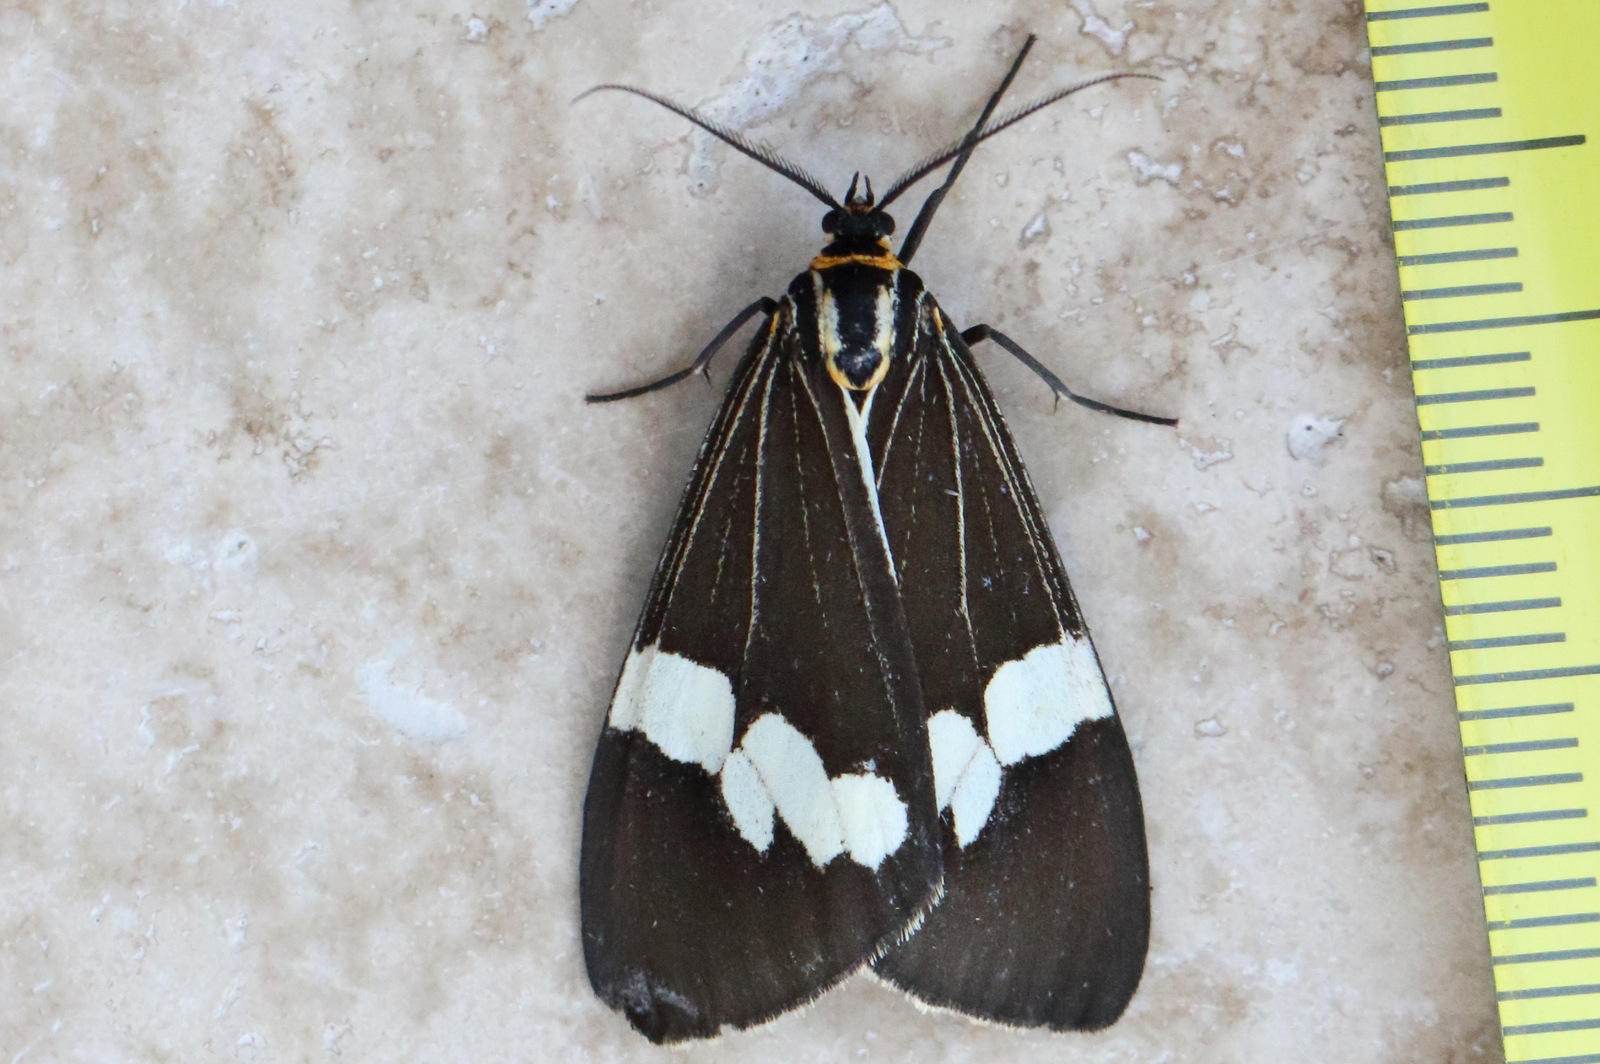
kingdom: Animalia
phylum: Arthropoda
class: Insecta
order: Lepidoptera
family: Erebidae
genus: Nyctemera
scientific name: Nyctemera amicus
